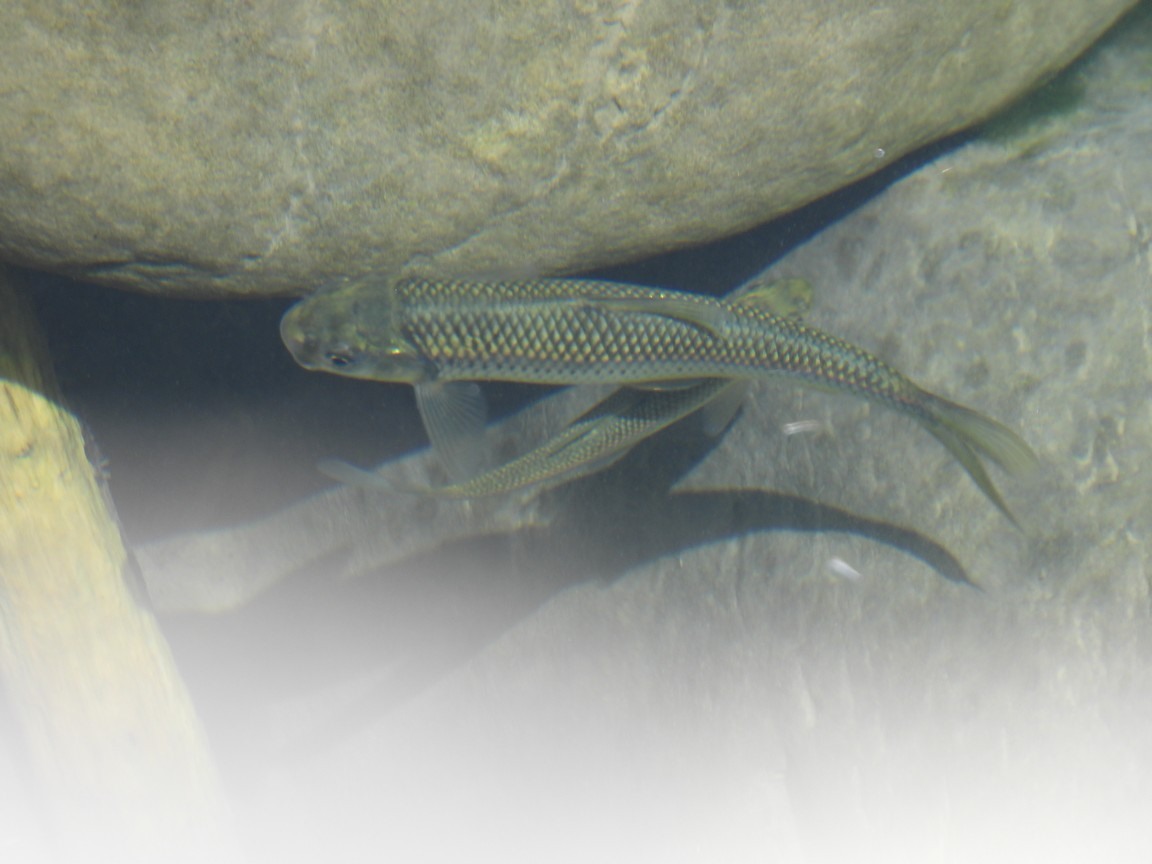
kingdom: Animalia
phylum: Chordata
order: Cypriniformes
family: Cyprinidae
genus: Onychostoma
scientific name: Onychostoma barbatulum
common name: Taiwan shoveljaw carp
